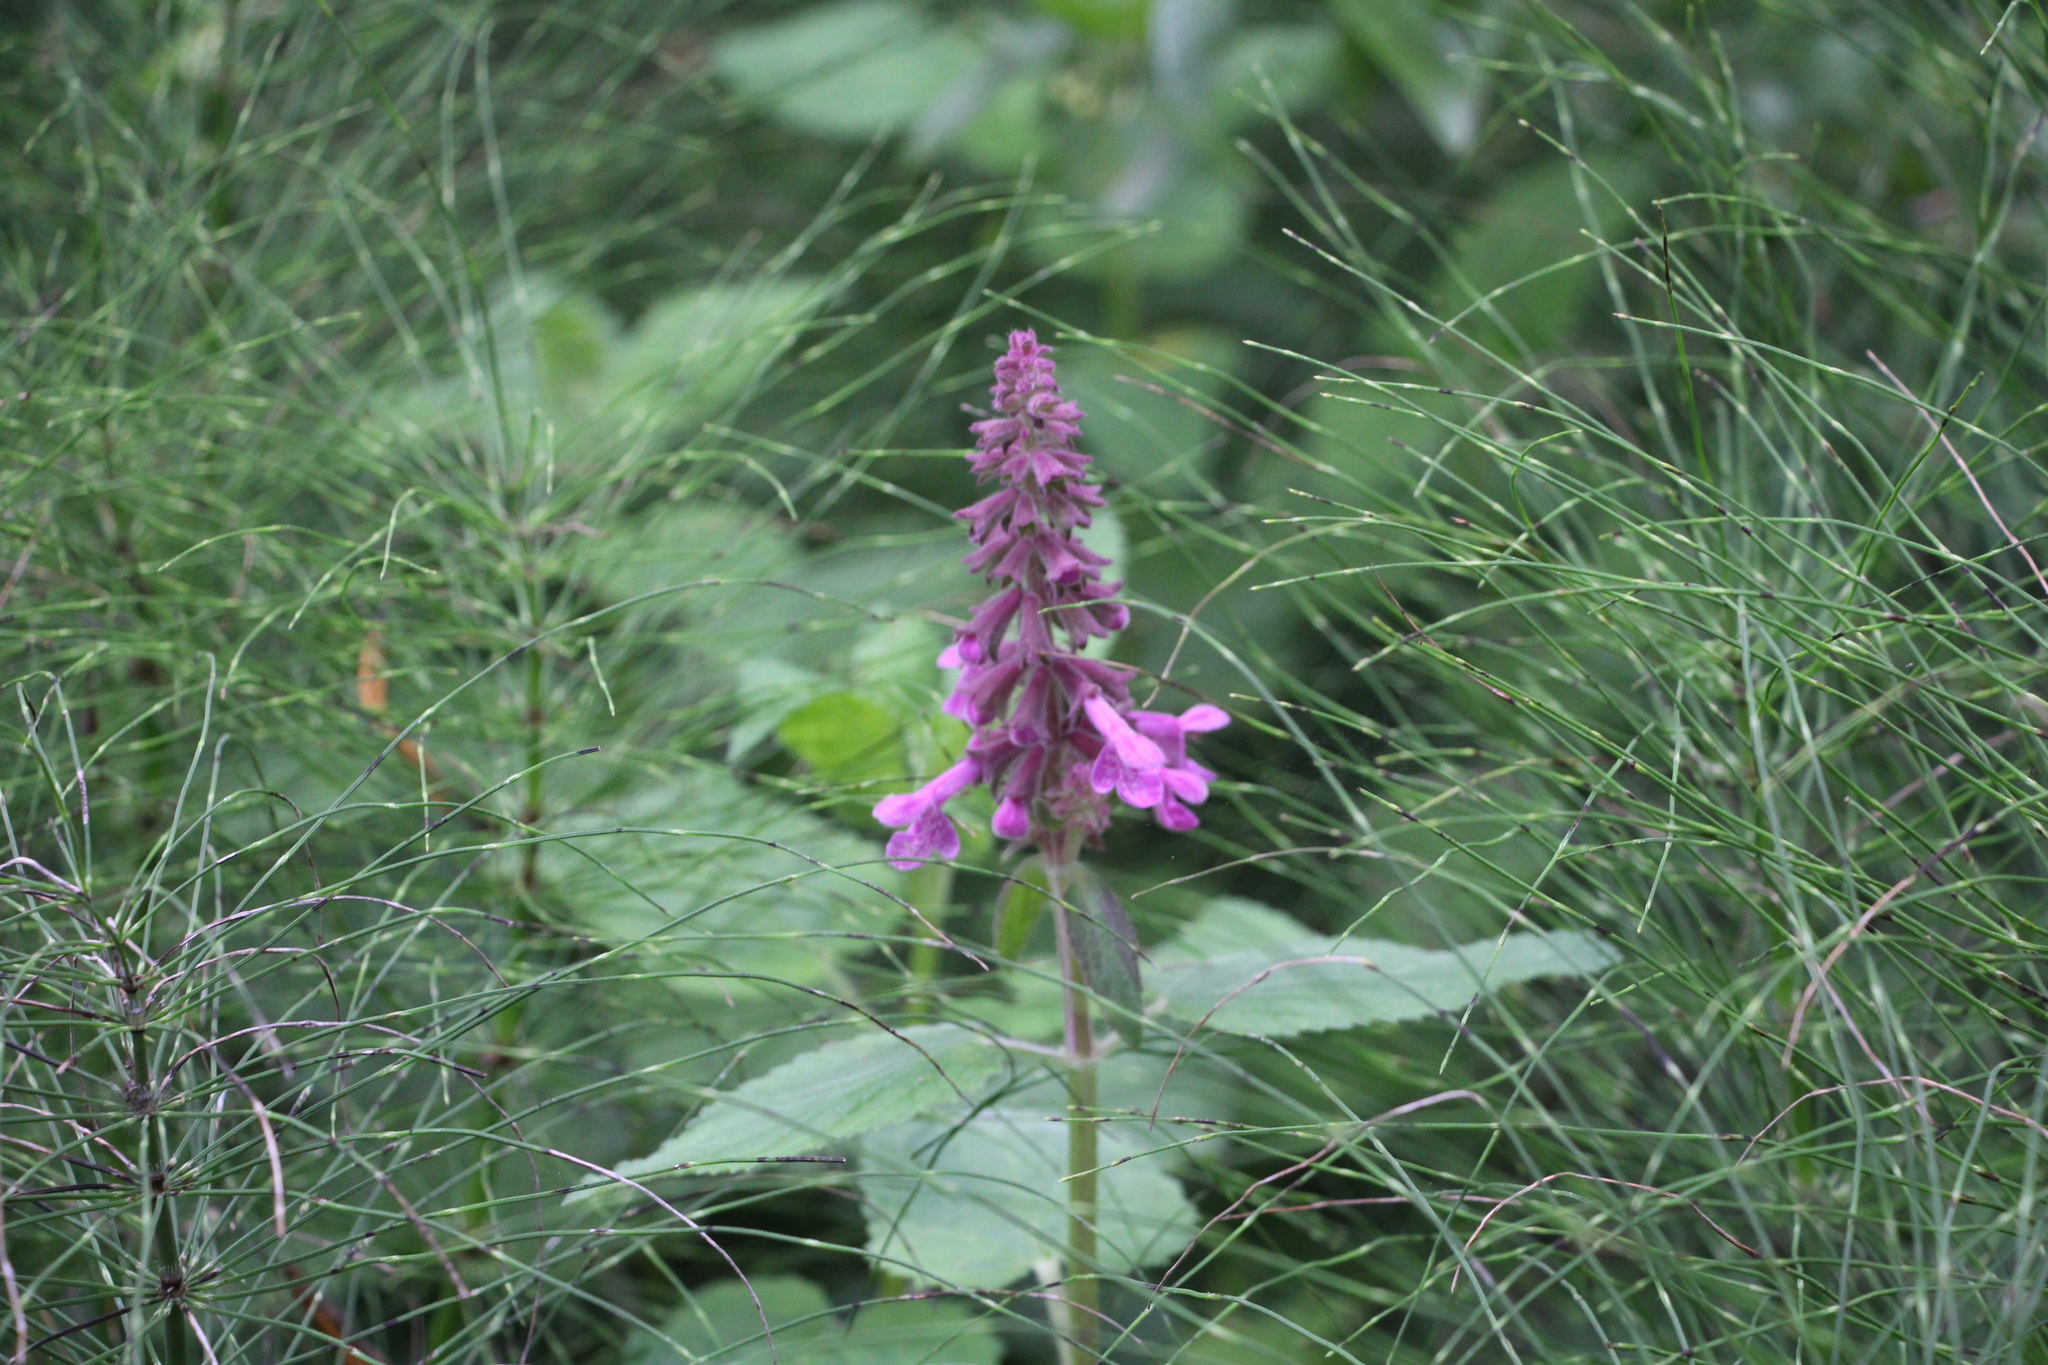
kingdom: Plantae
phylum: Tracheophyta
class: Magnoliopsida
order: Lamiales
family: Lamiaceae
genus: Stachys
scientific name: Stachys chamissonis
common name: Coastal hedge-nettle
